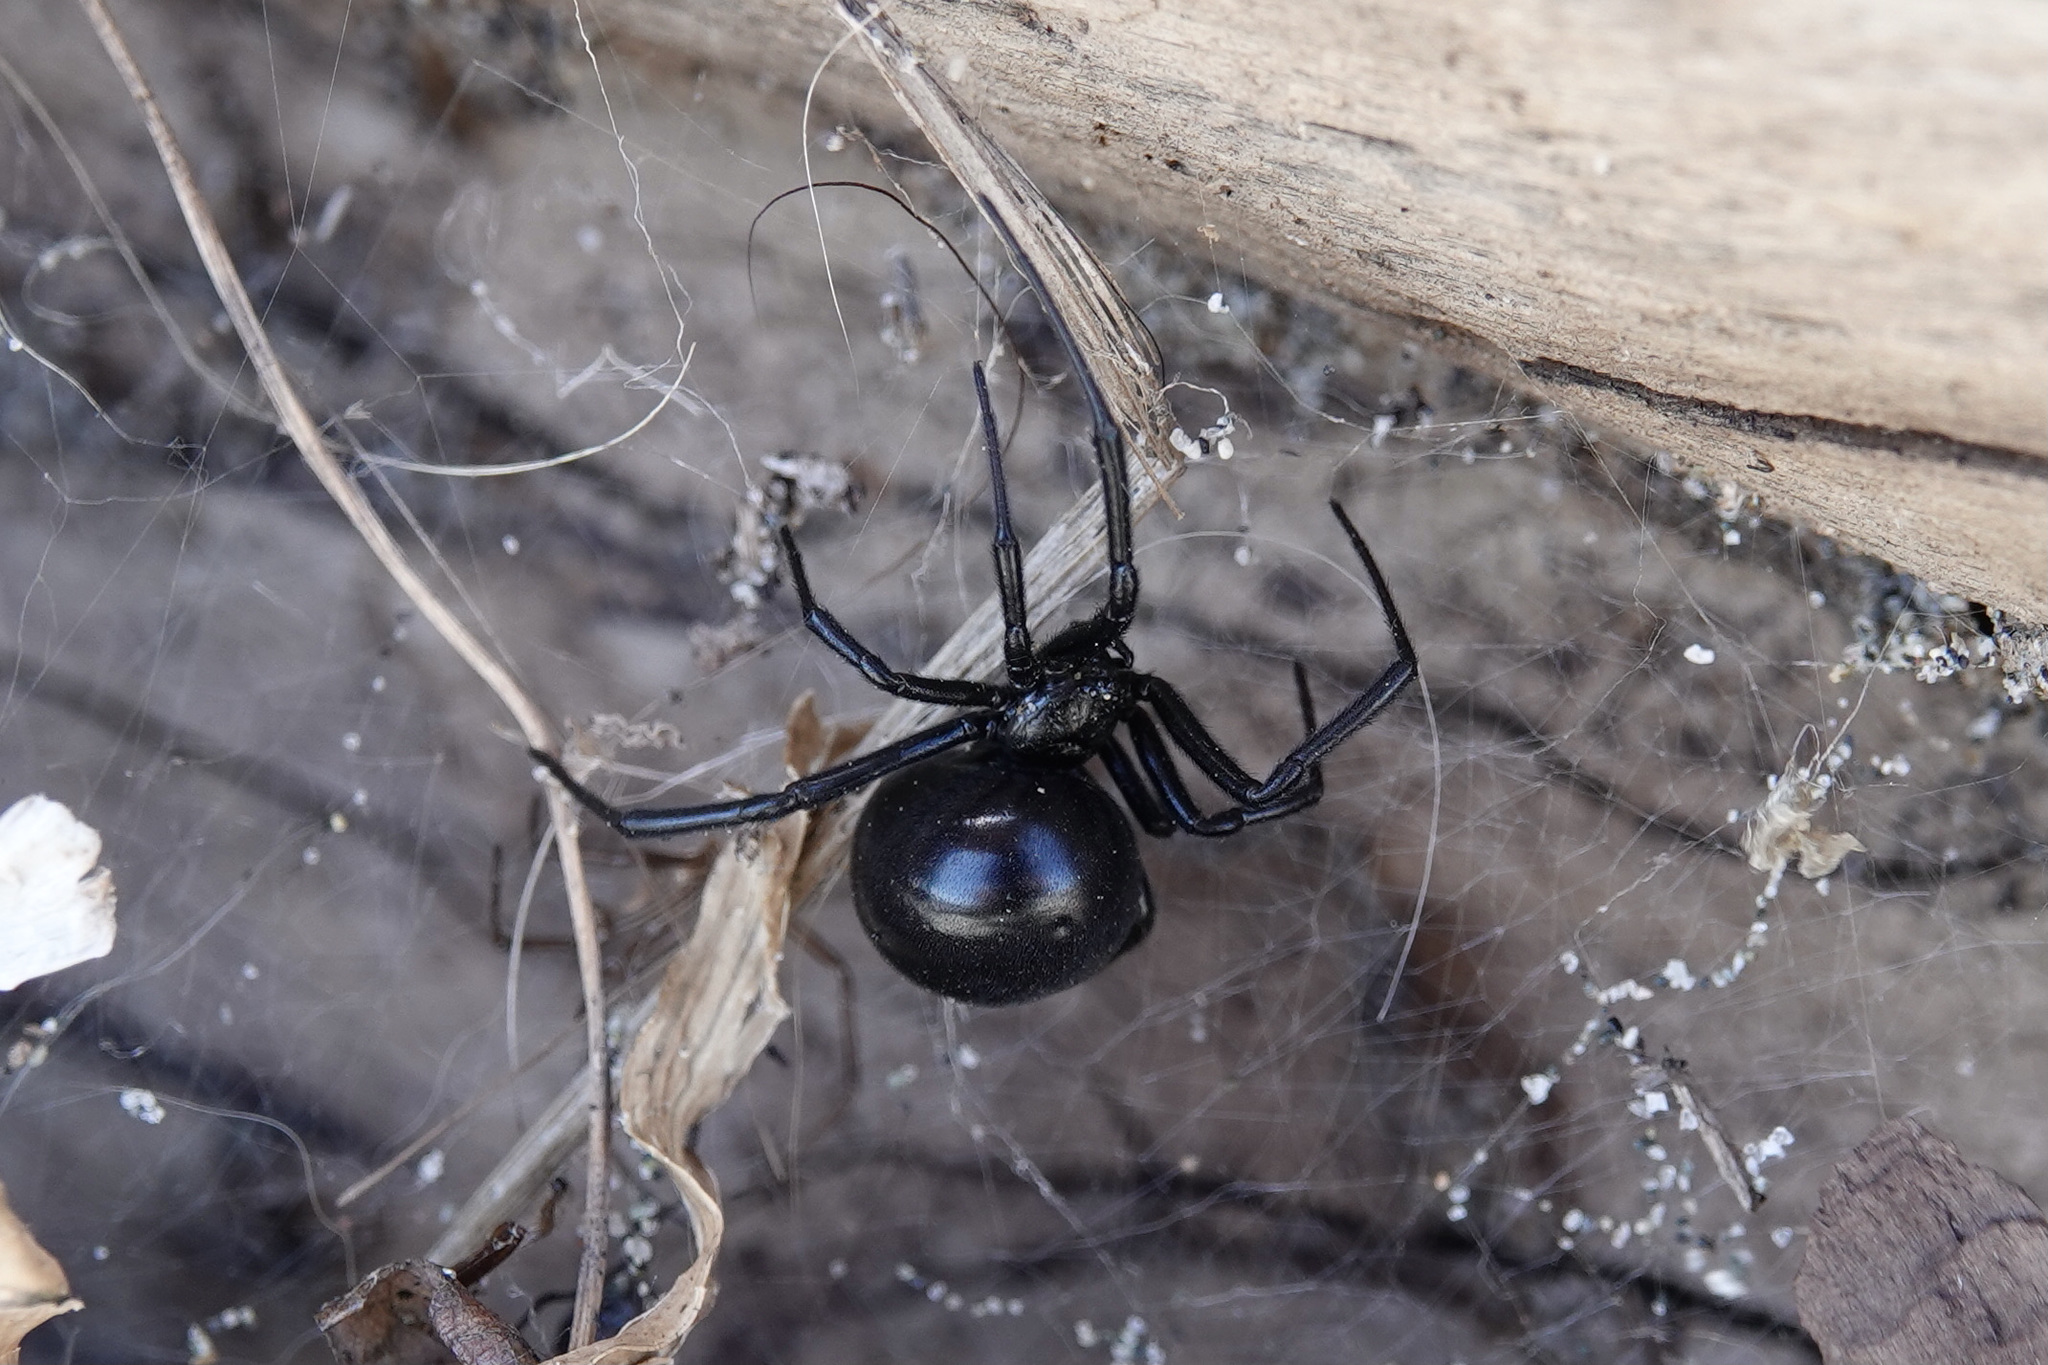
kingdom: Animalia
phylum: Arthropoda
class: Arachnida
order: Araneae
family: Theridiidae
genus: Latrodectus
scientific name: Latrodectus hesperus
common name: Western black widow
